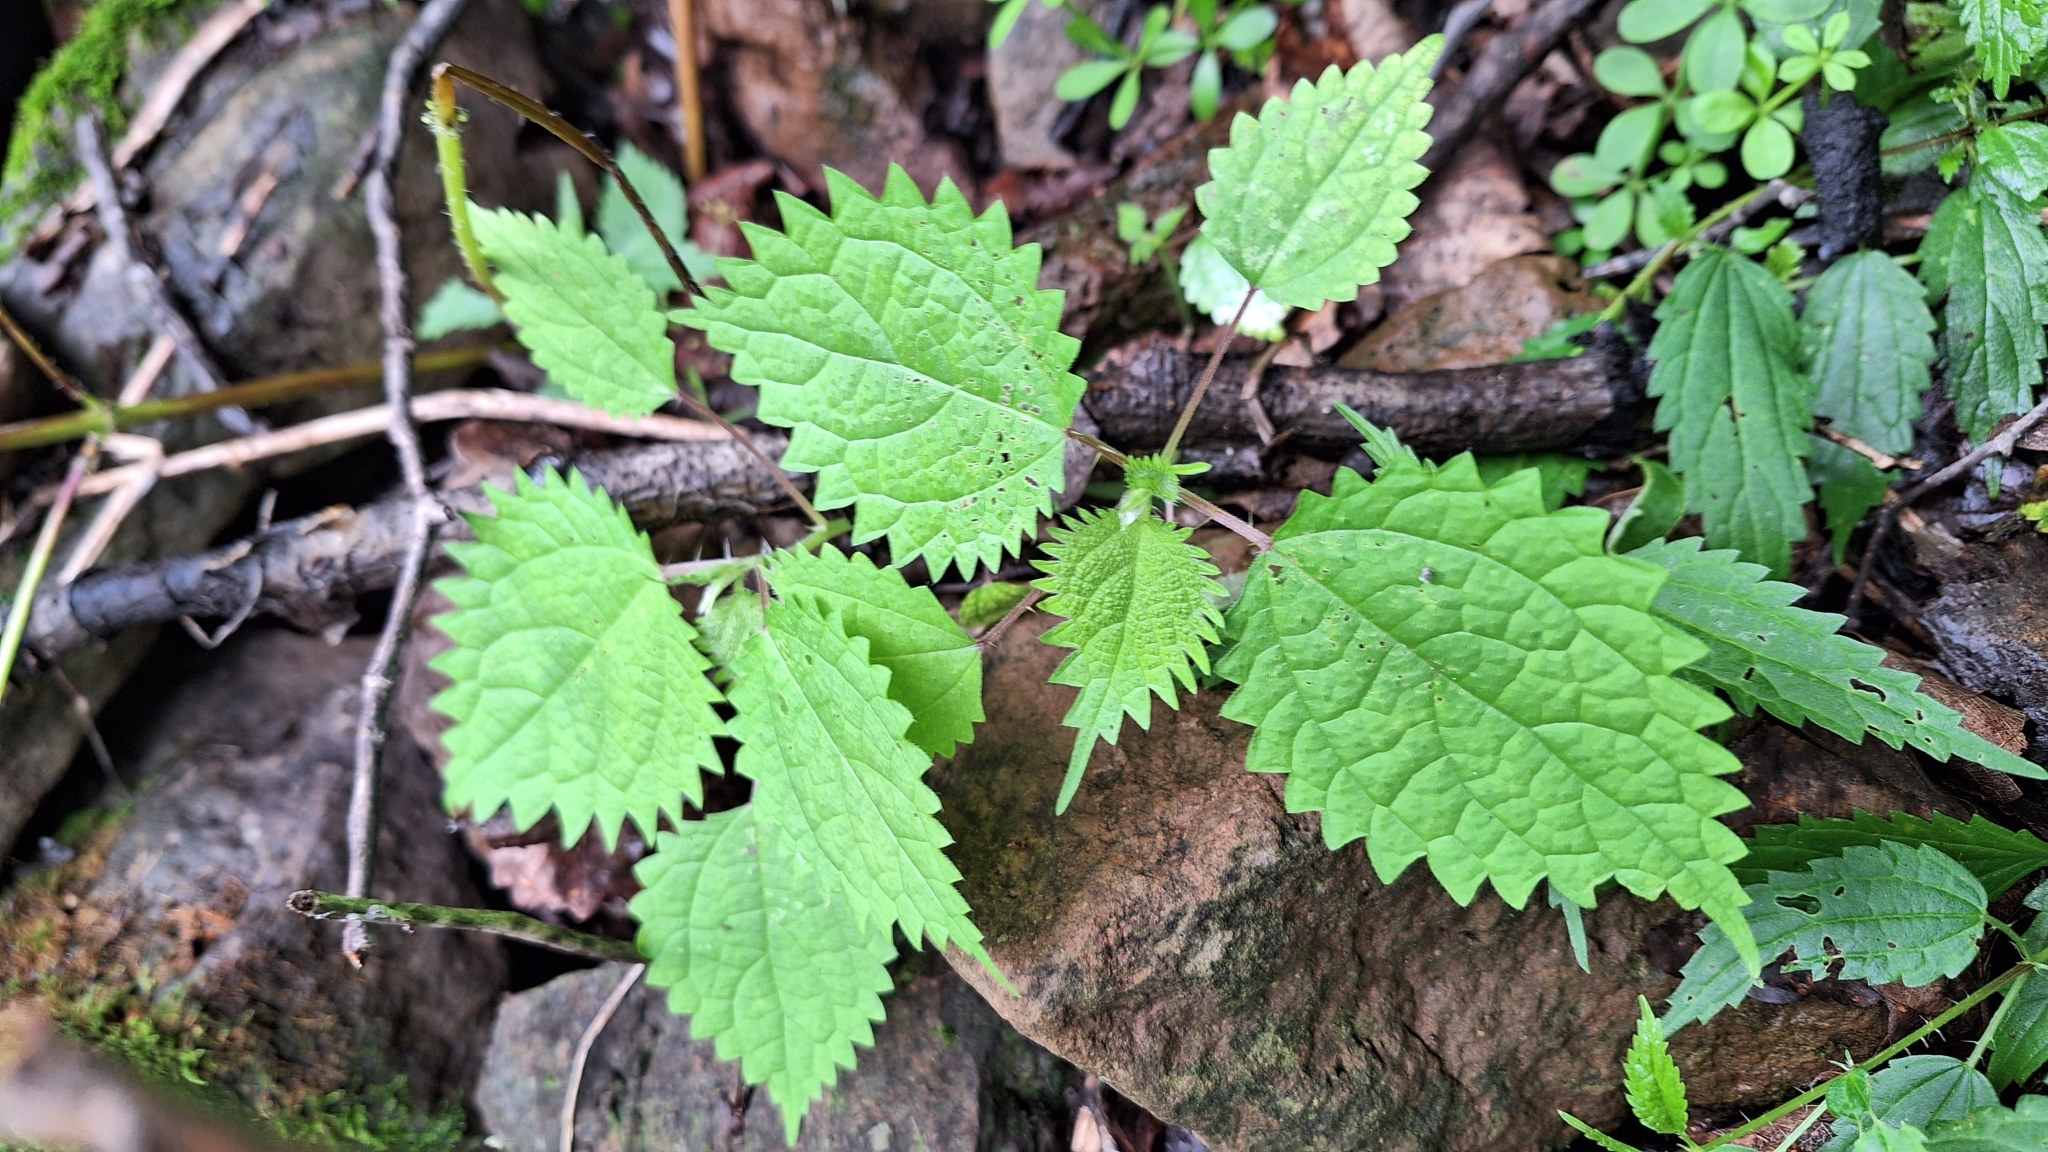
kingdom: Plantae
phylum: Tracheophyta
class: Magnoliopsida
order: Rosales
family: Urticaceae
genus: Girardinia
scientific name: Girardinia diversifolia
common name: Himalayan-nettle
